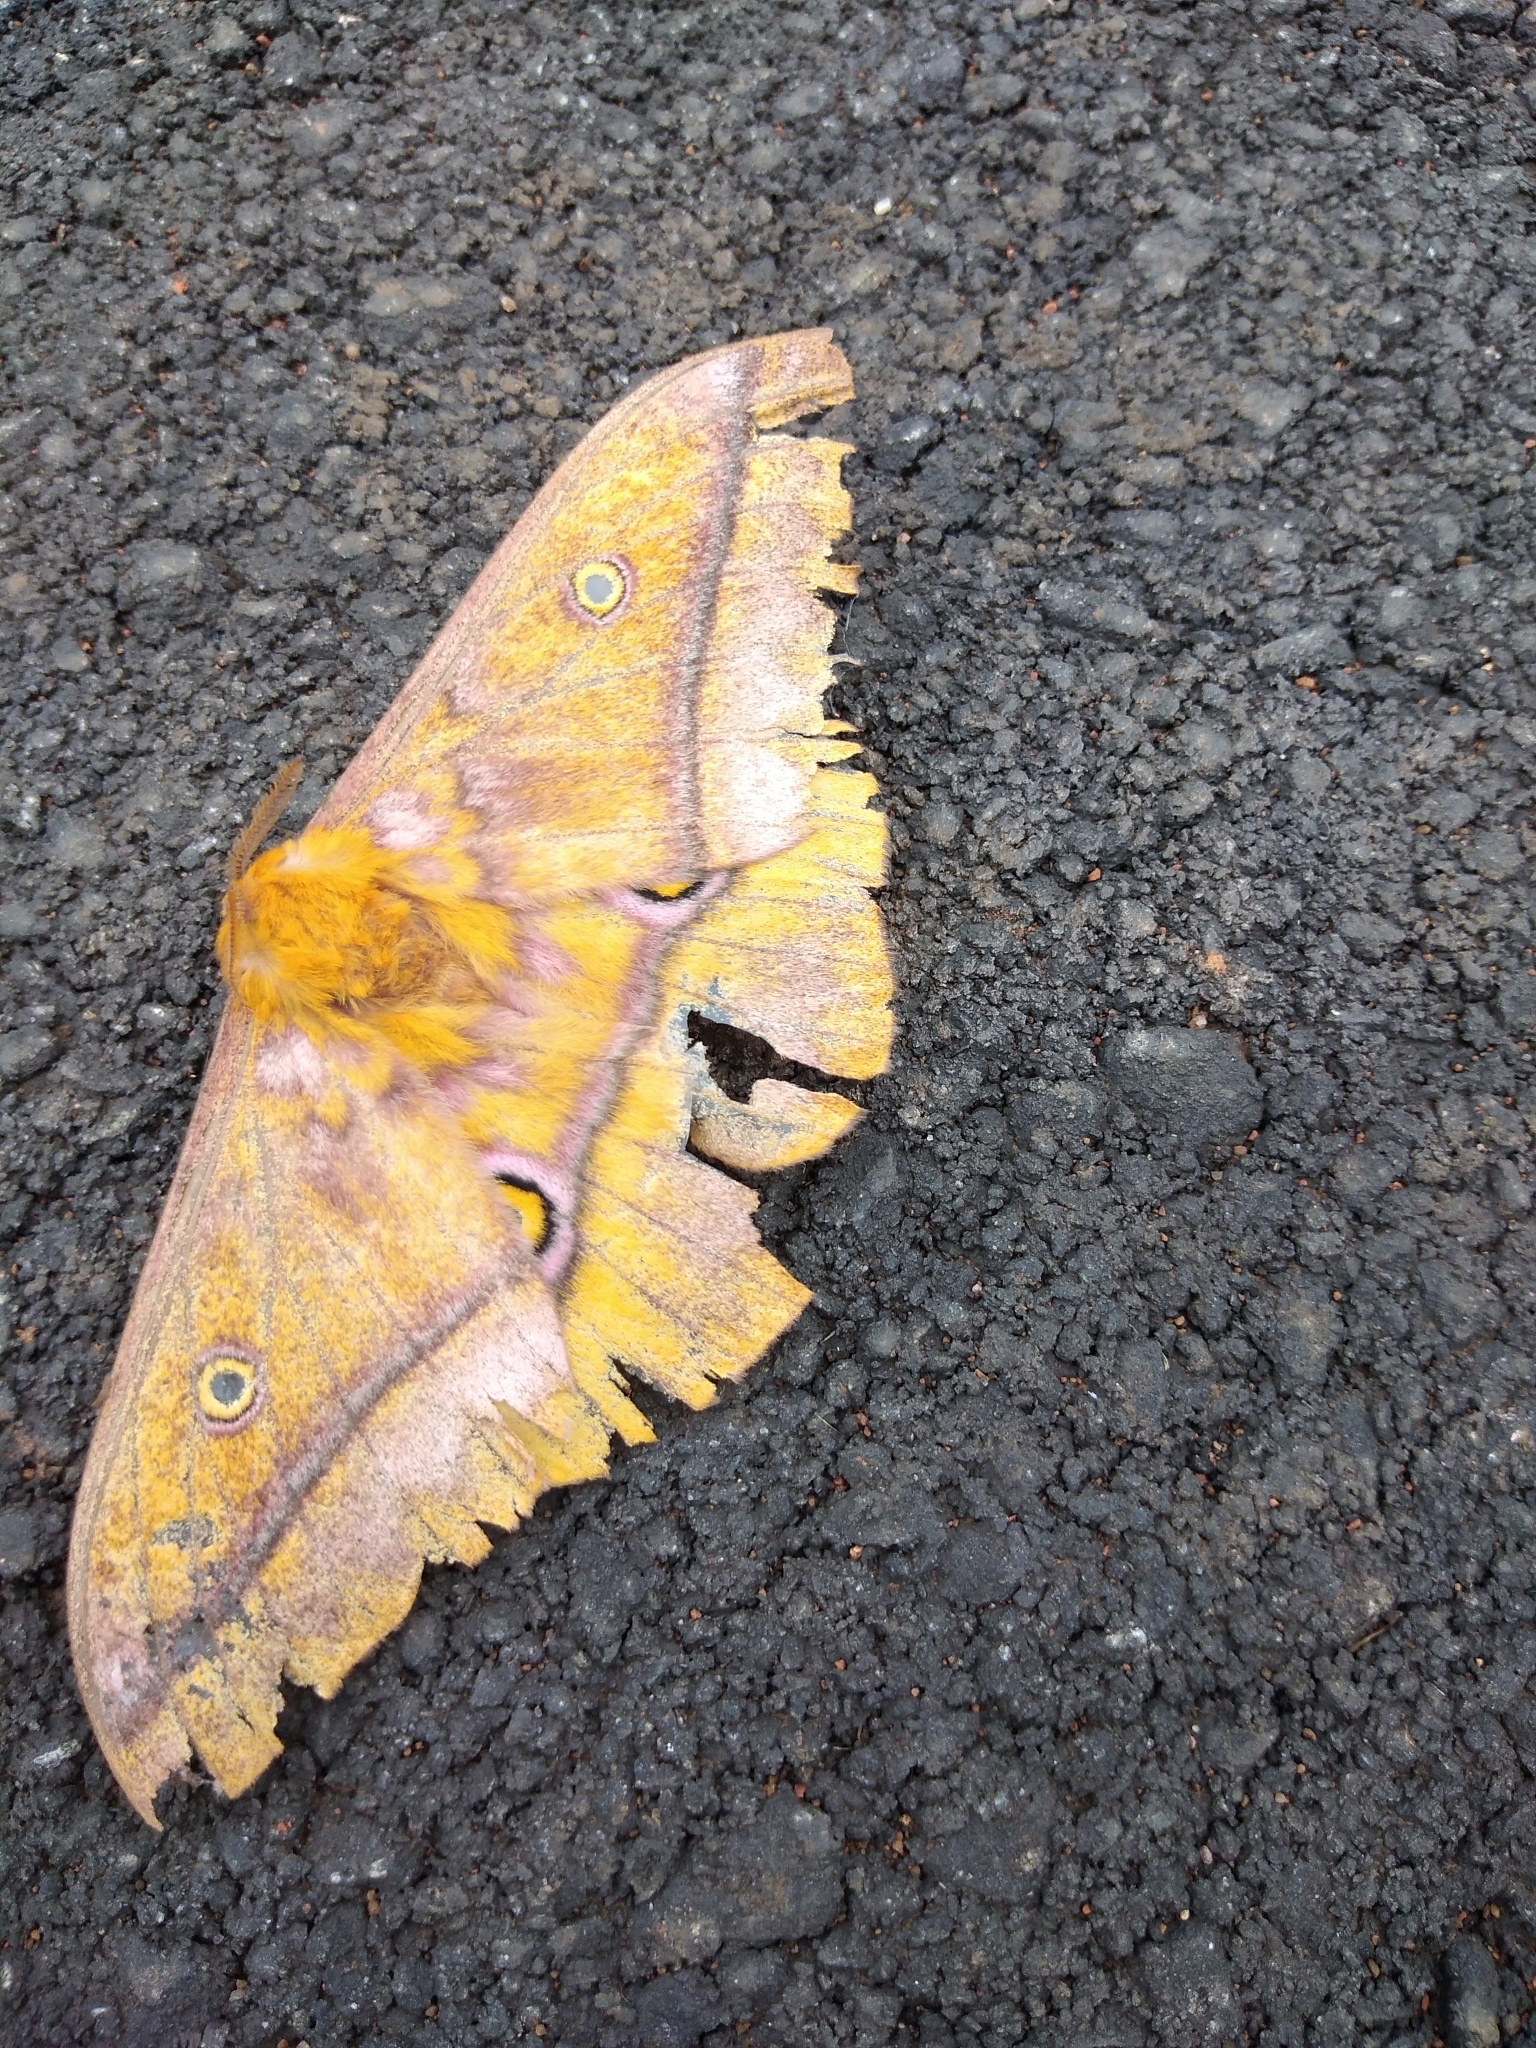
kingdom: Animalia
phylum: Arthropoda
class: Insecta
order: Lepidoptera
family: Saturniidae
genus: Nudaurelia
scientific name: Nudaurelia wahlbergi
